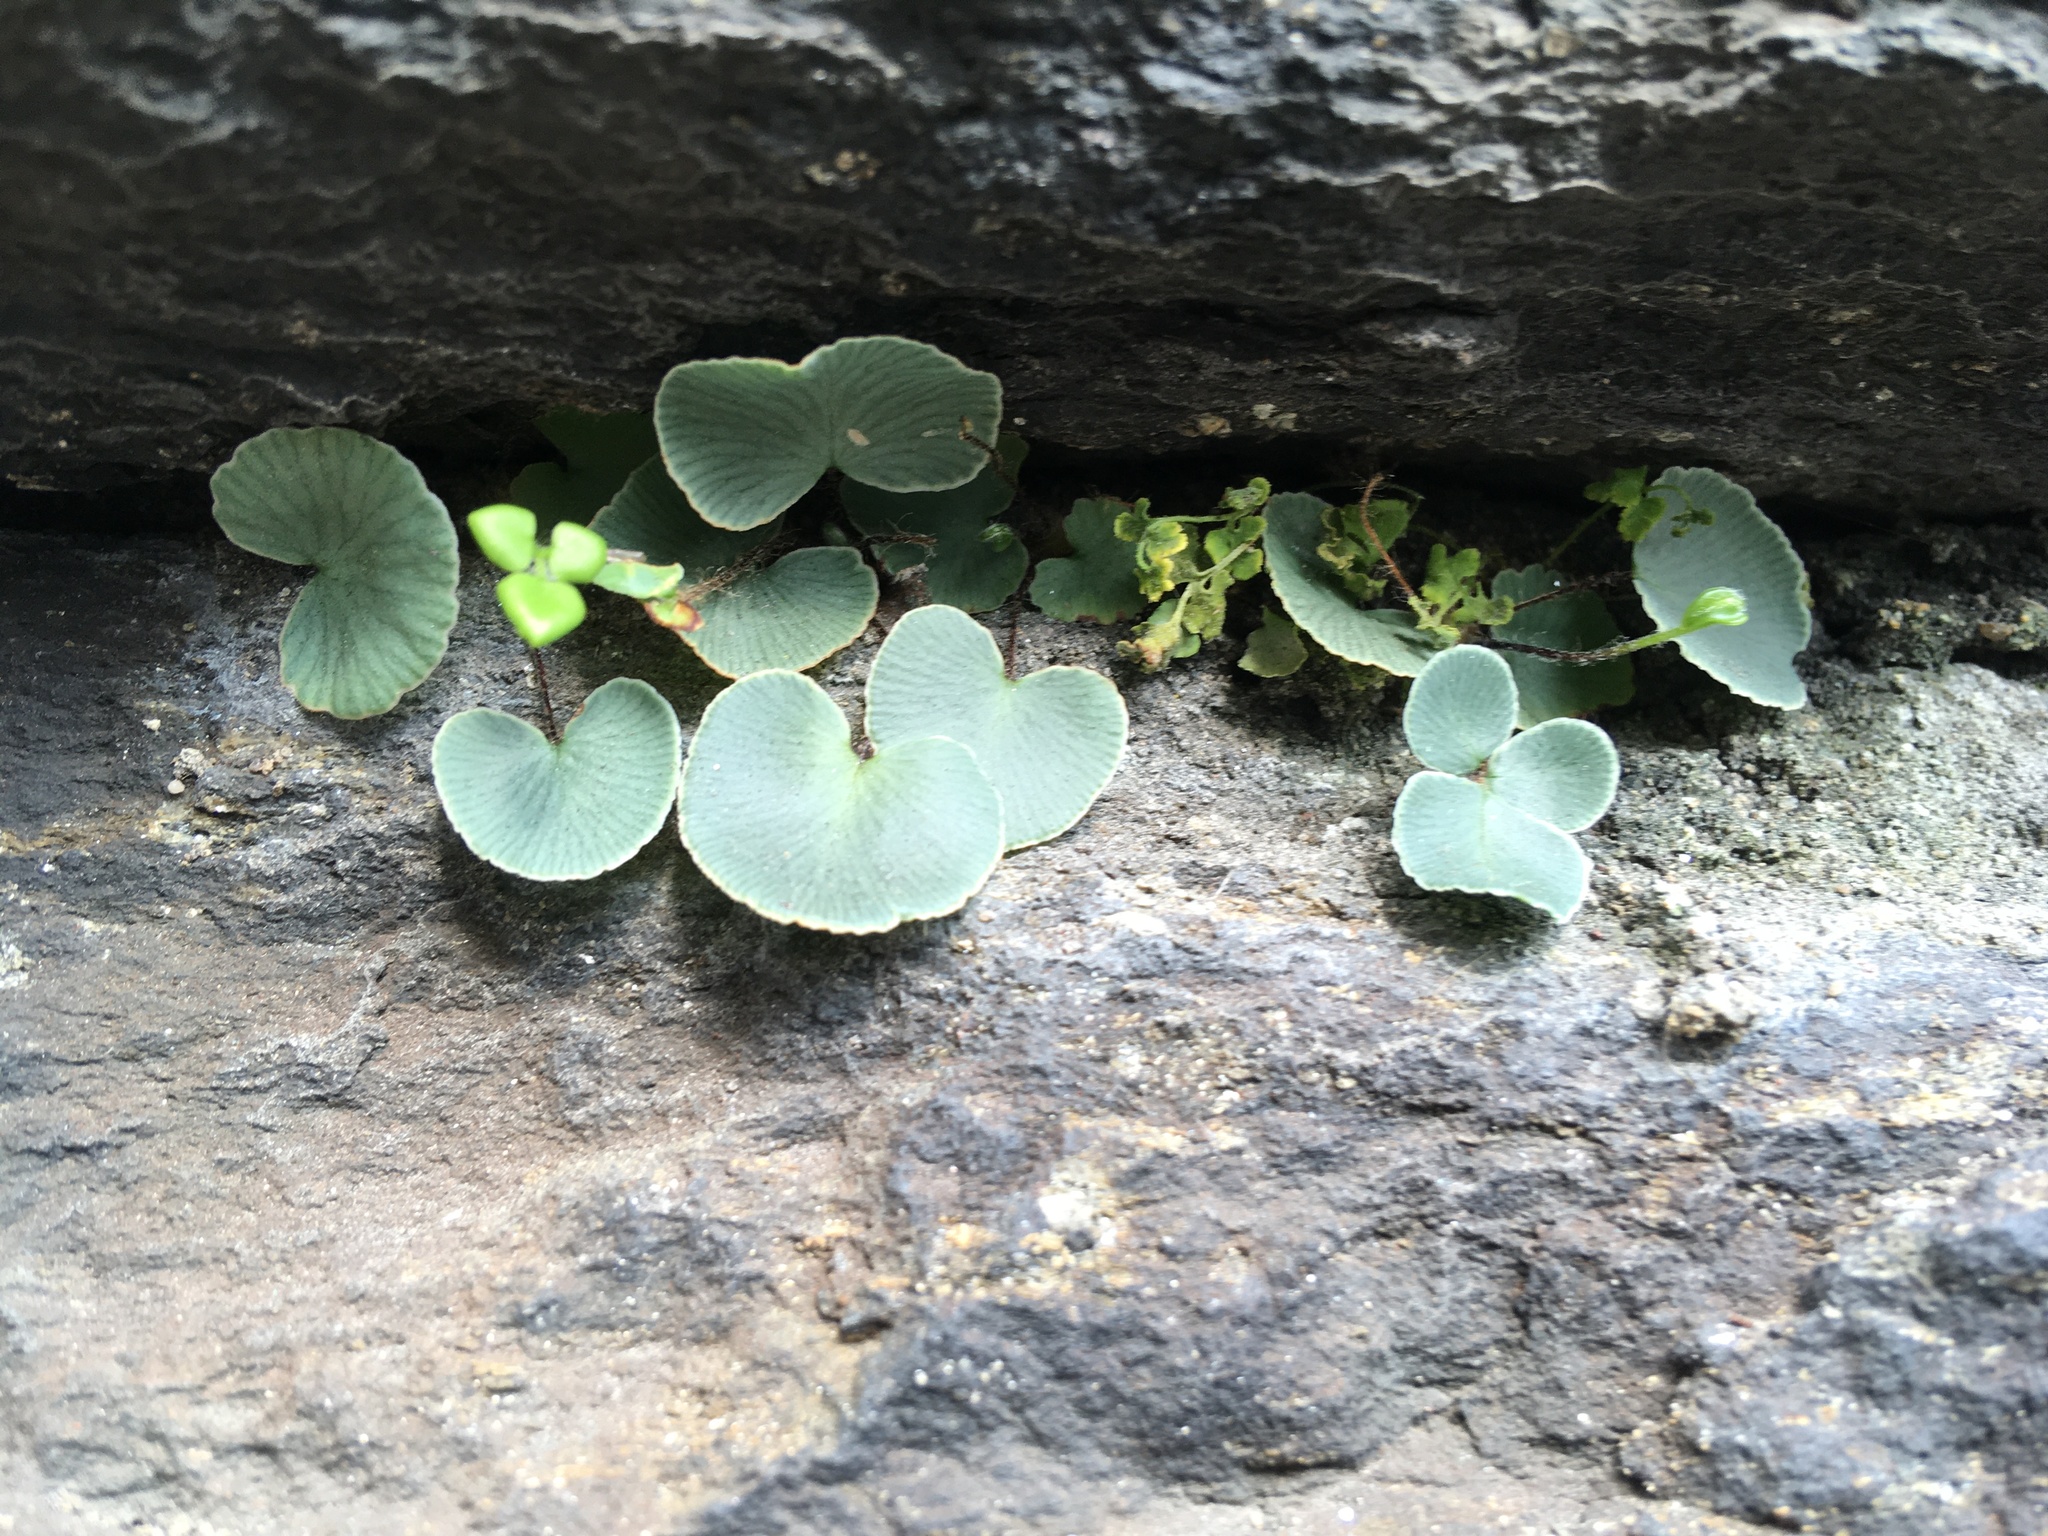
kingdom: Plantae
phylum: Tracheophyta
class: Polypodiopsida
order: Polypodiales
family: Pteridaceae
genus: Pellaea
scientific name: Pellaea atropurpurea
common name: Hairy cliffbrake
